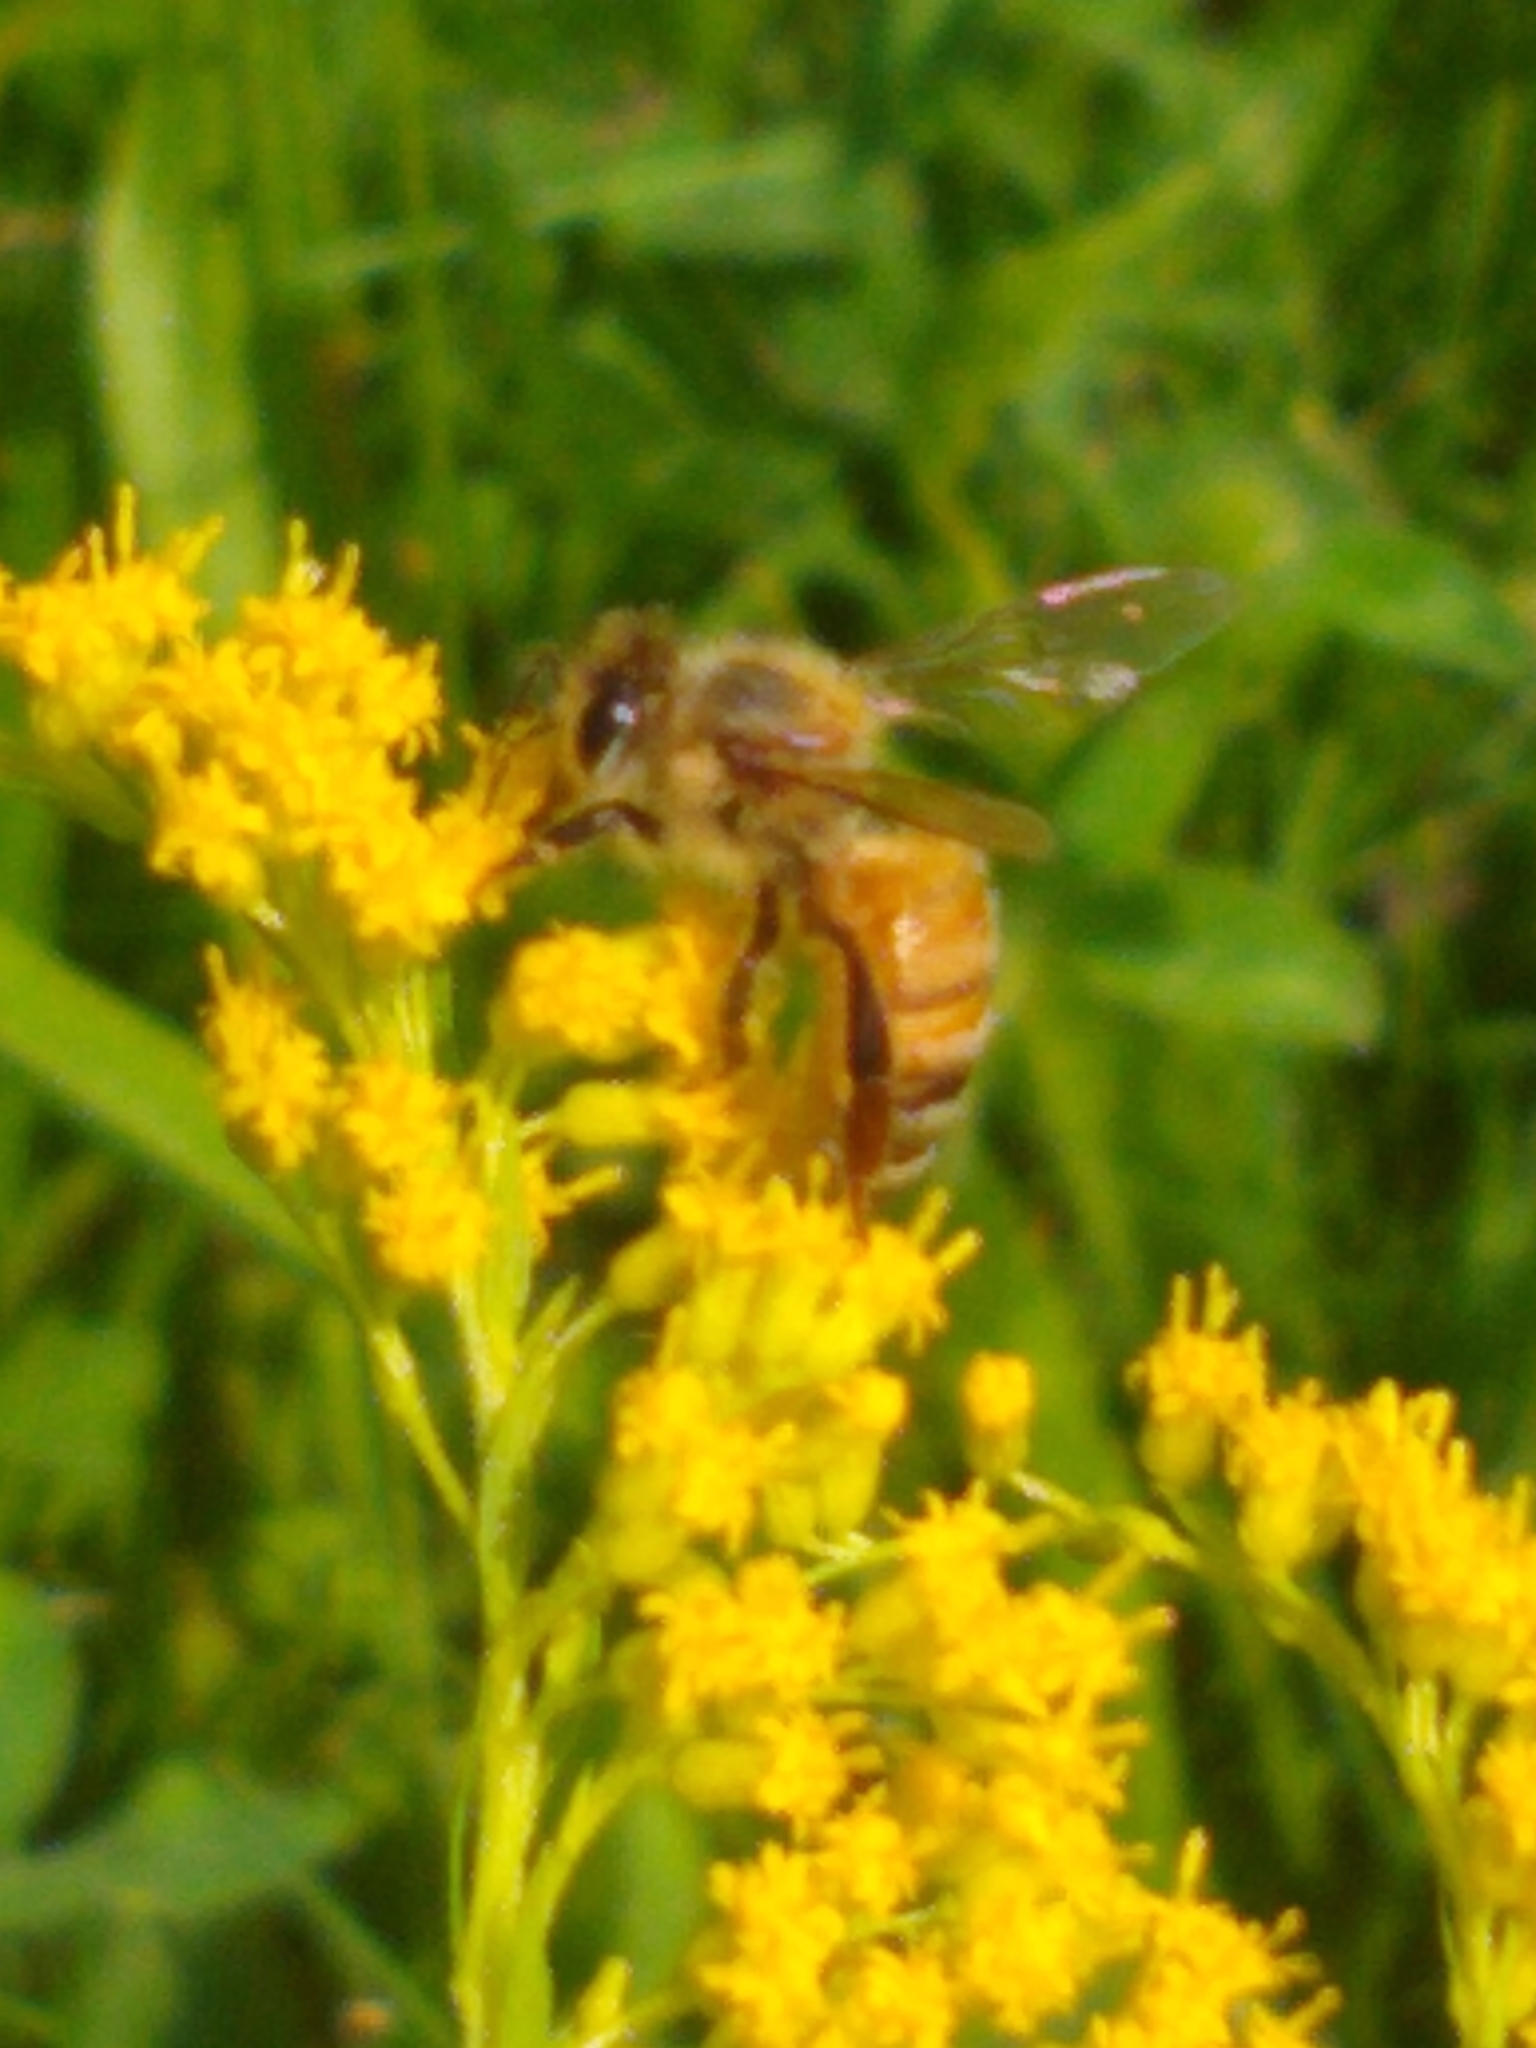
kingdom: Animalia
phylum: Arthropoda
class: Insecta
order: Hymenoptera
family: Apidae
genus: Apis
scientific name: Apis mellifera
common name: Honey bee
